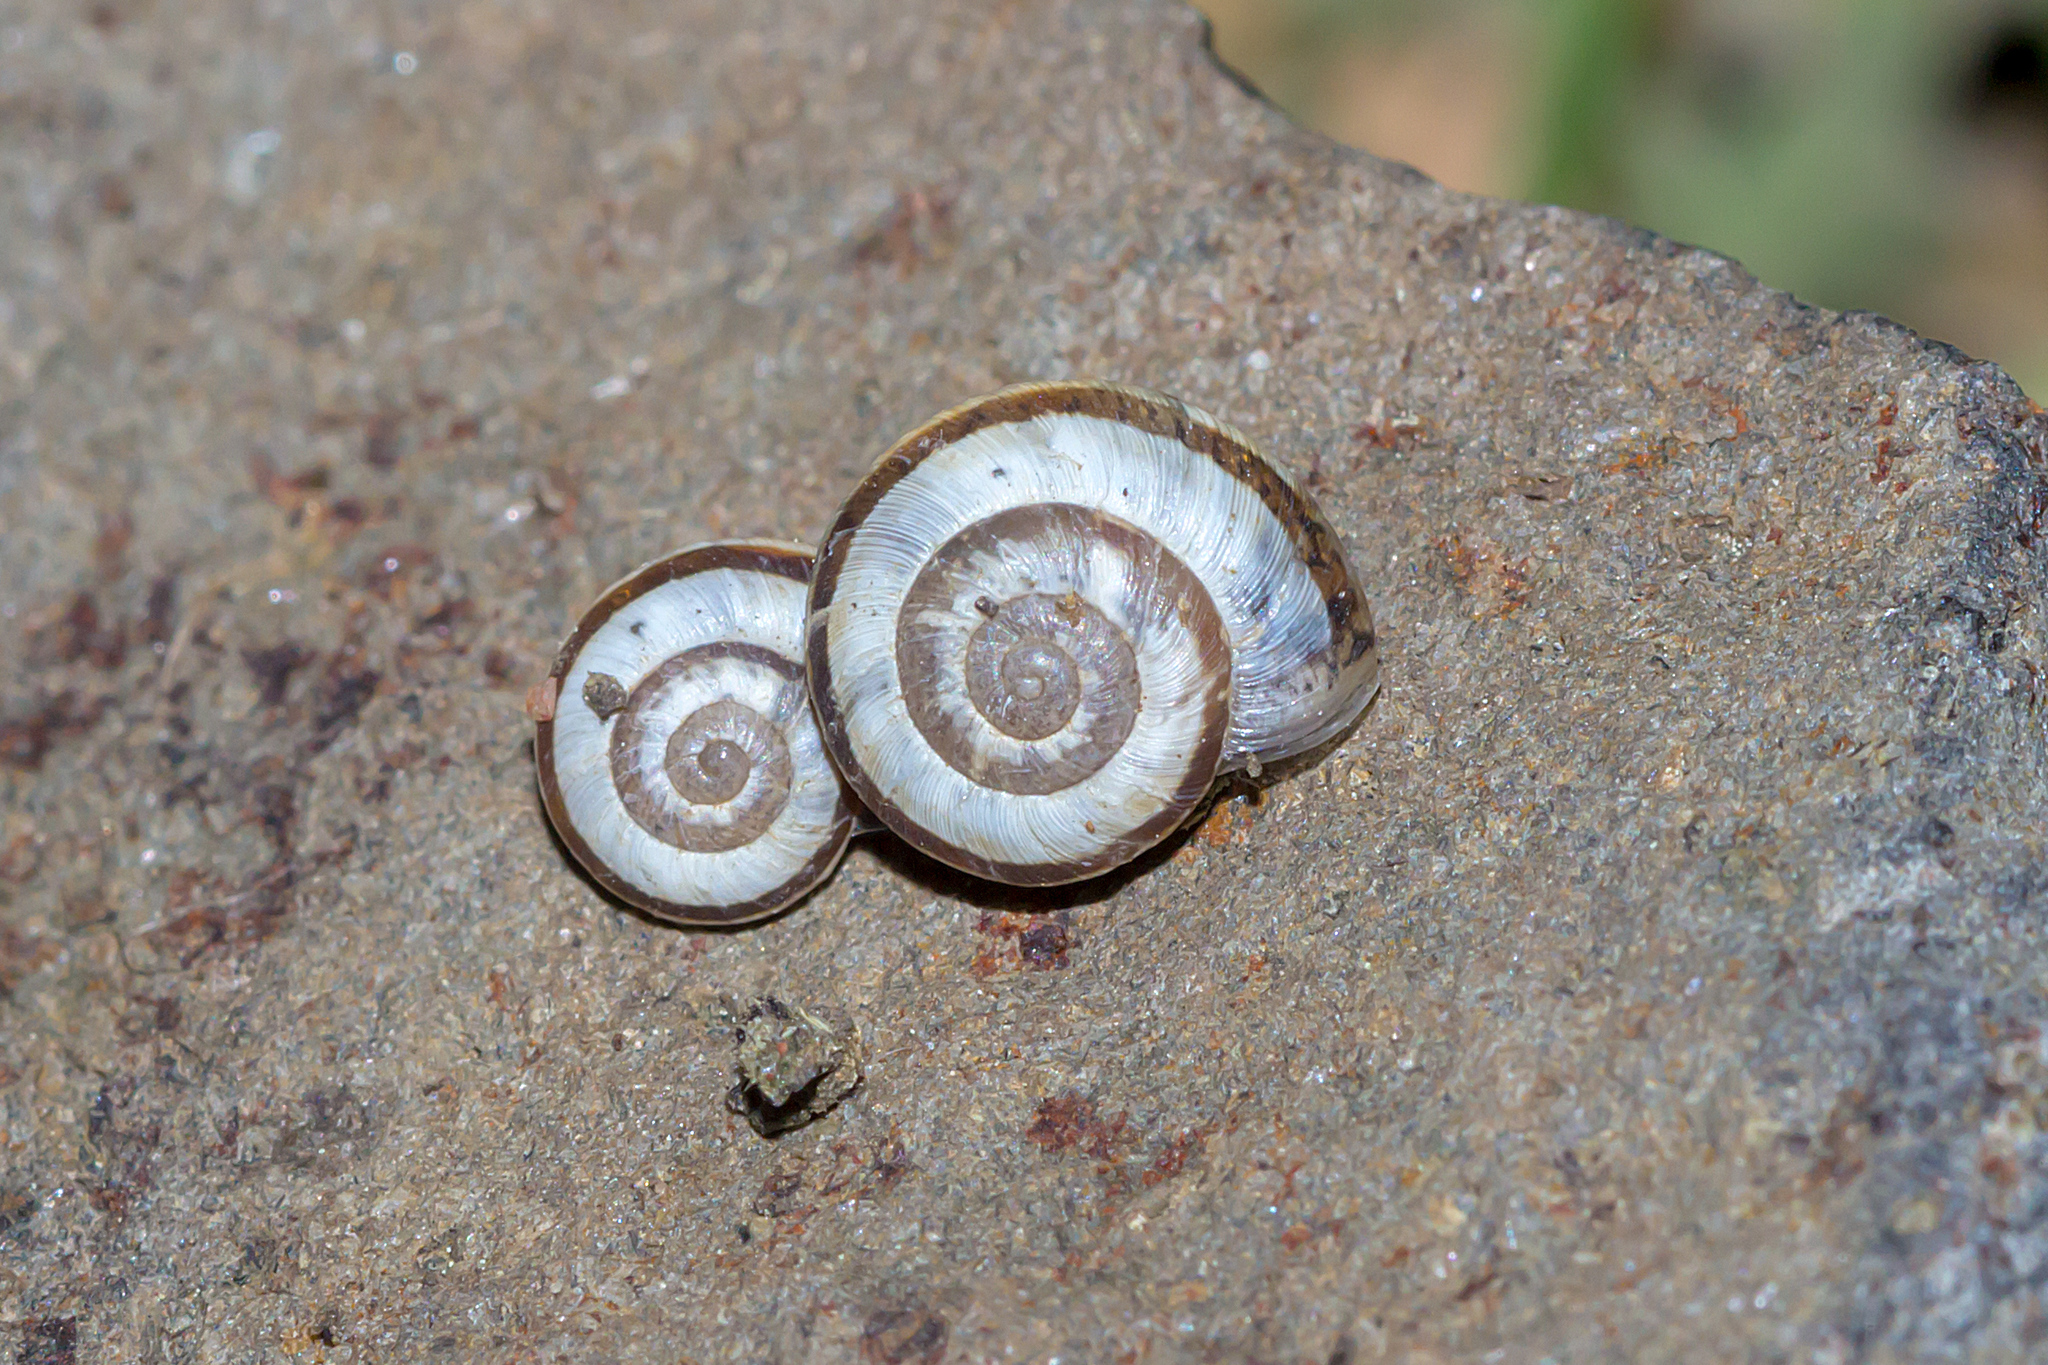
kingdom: Animalia
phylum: Mollusca
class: Gastropoda
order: Stylommatophora
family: Geomitridae
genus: Cernuella
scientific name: Cernuella virgata
